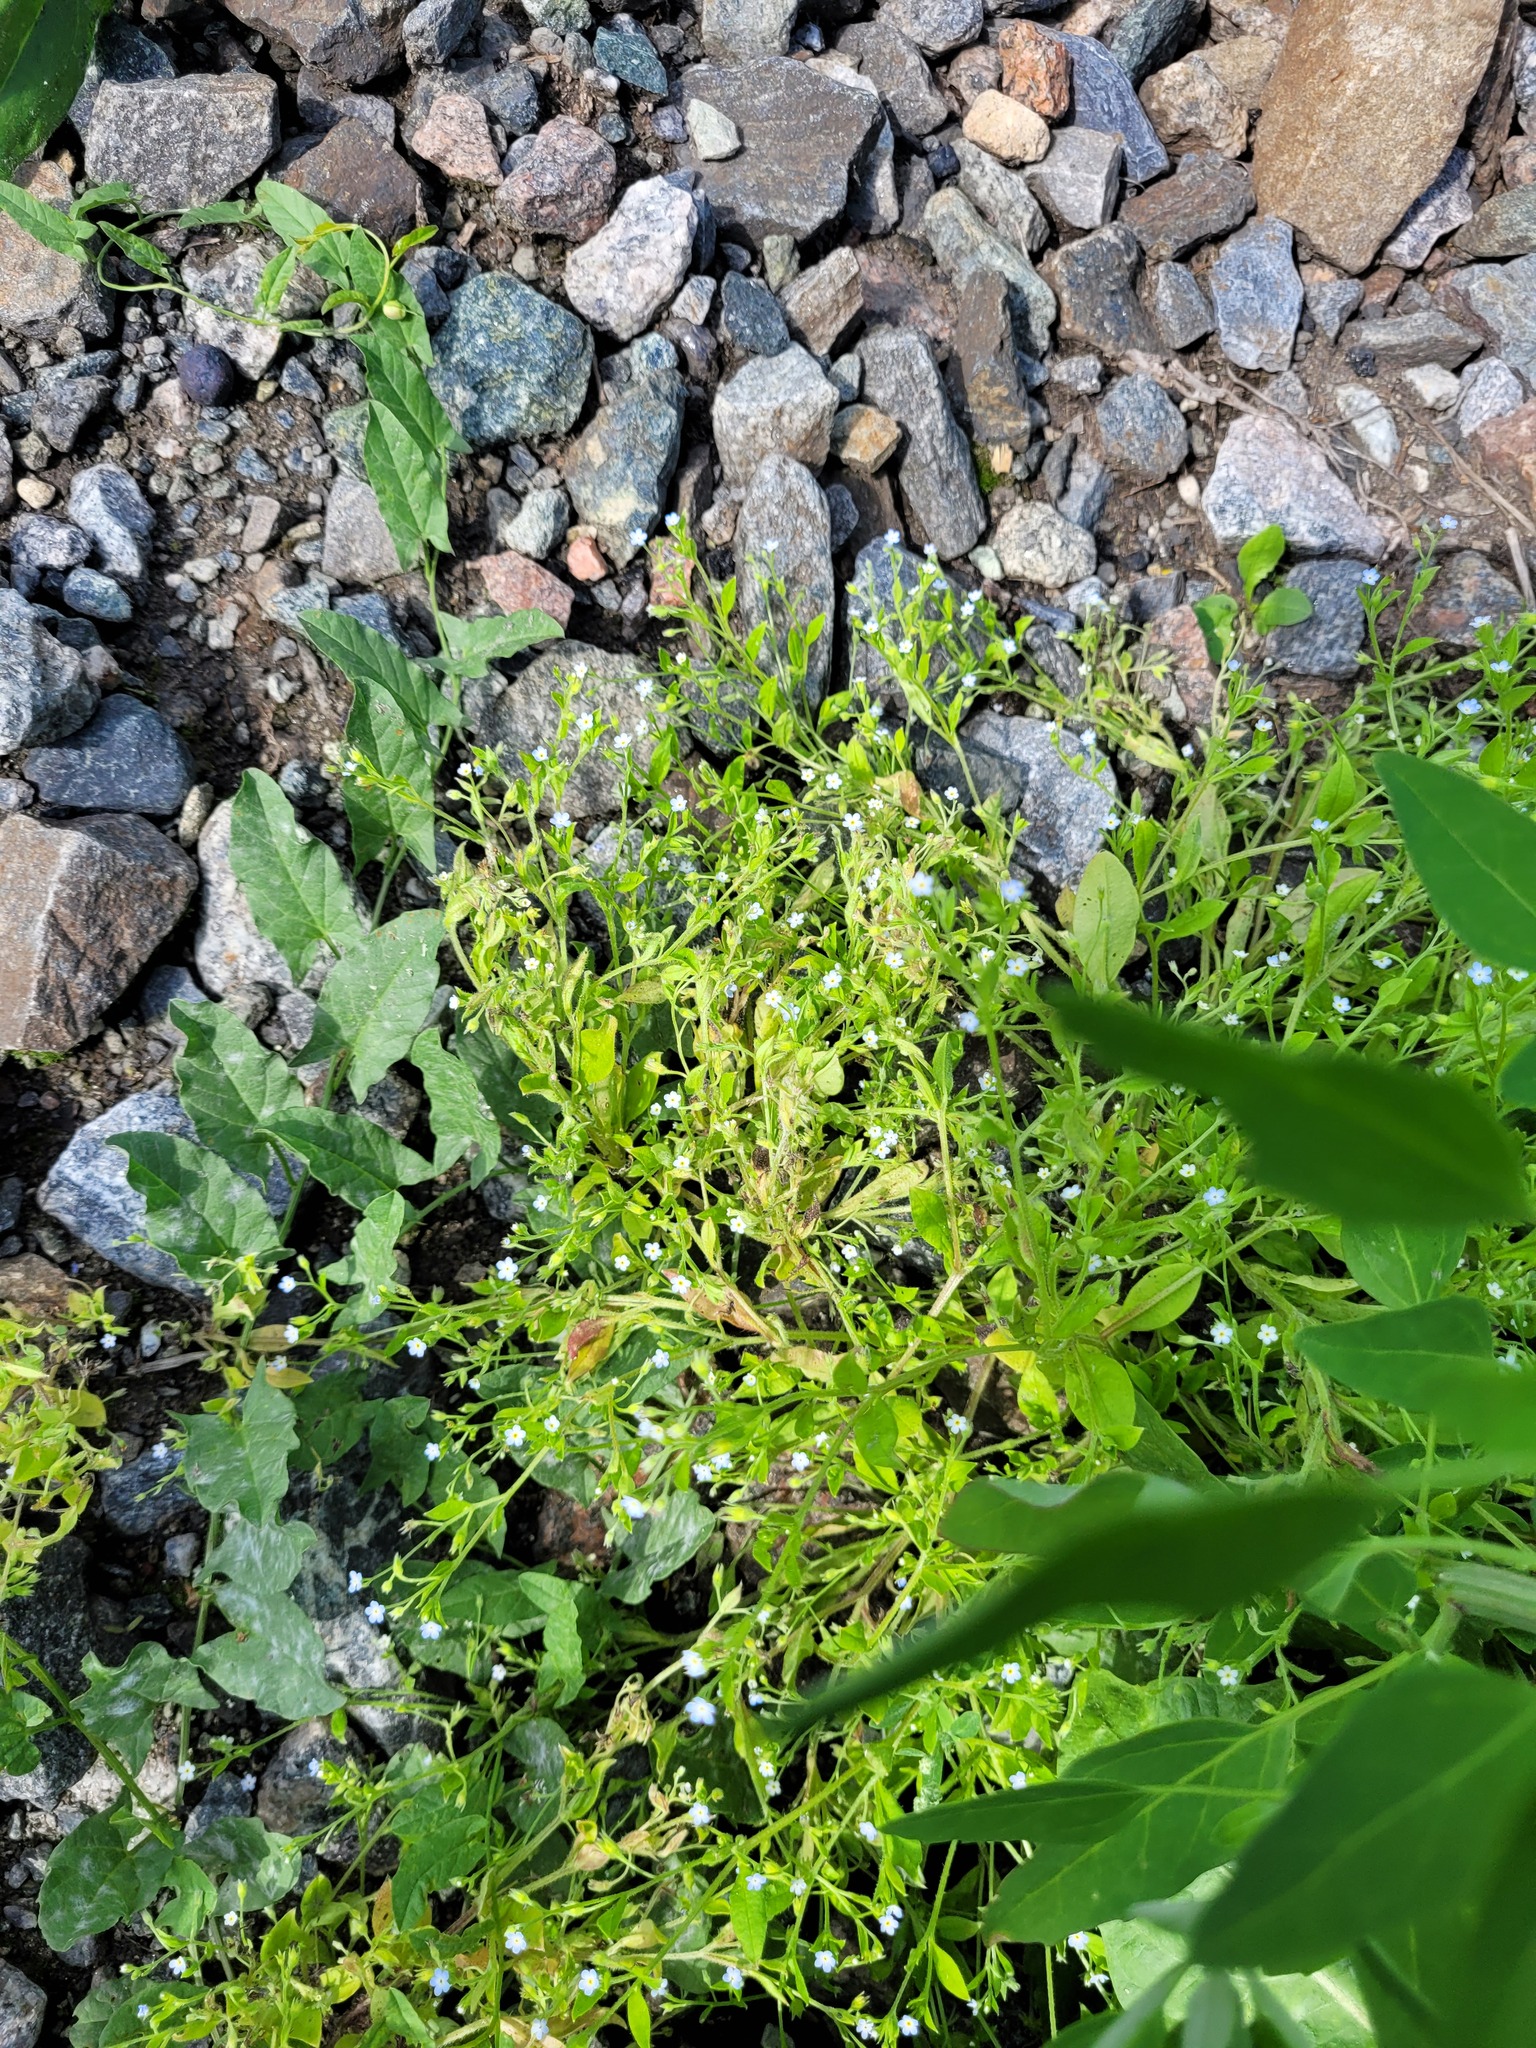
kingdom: Plantae
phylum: Tracheophyta
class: Magnoliopsida
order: Boraginales
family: Boraginaceae
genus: Myosotis
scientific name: Myosotis sparsiflora
